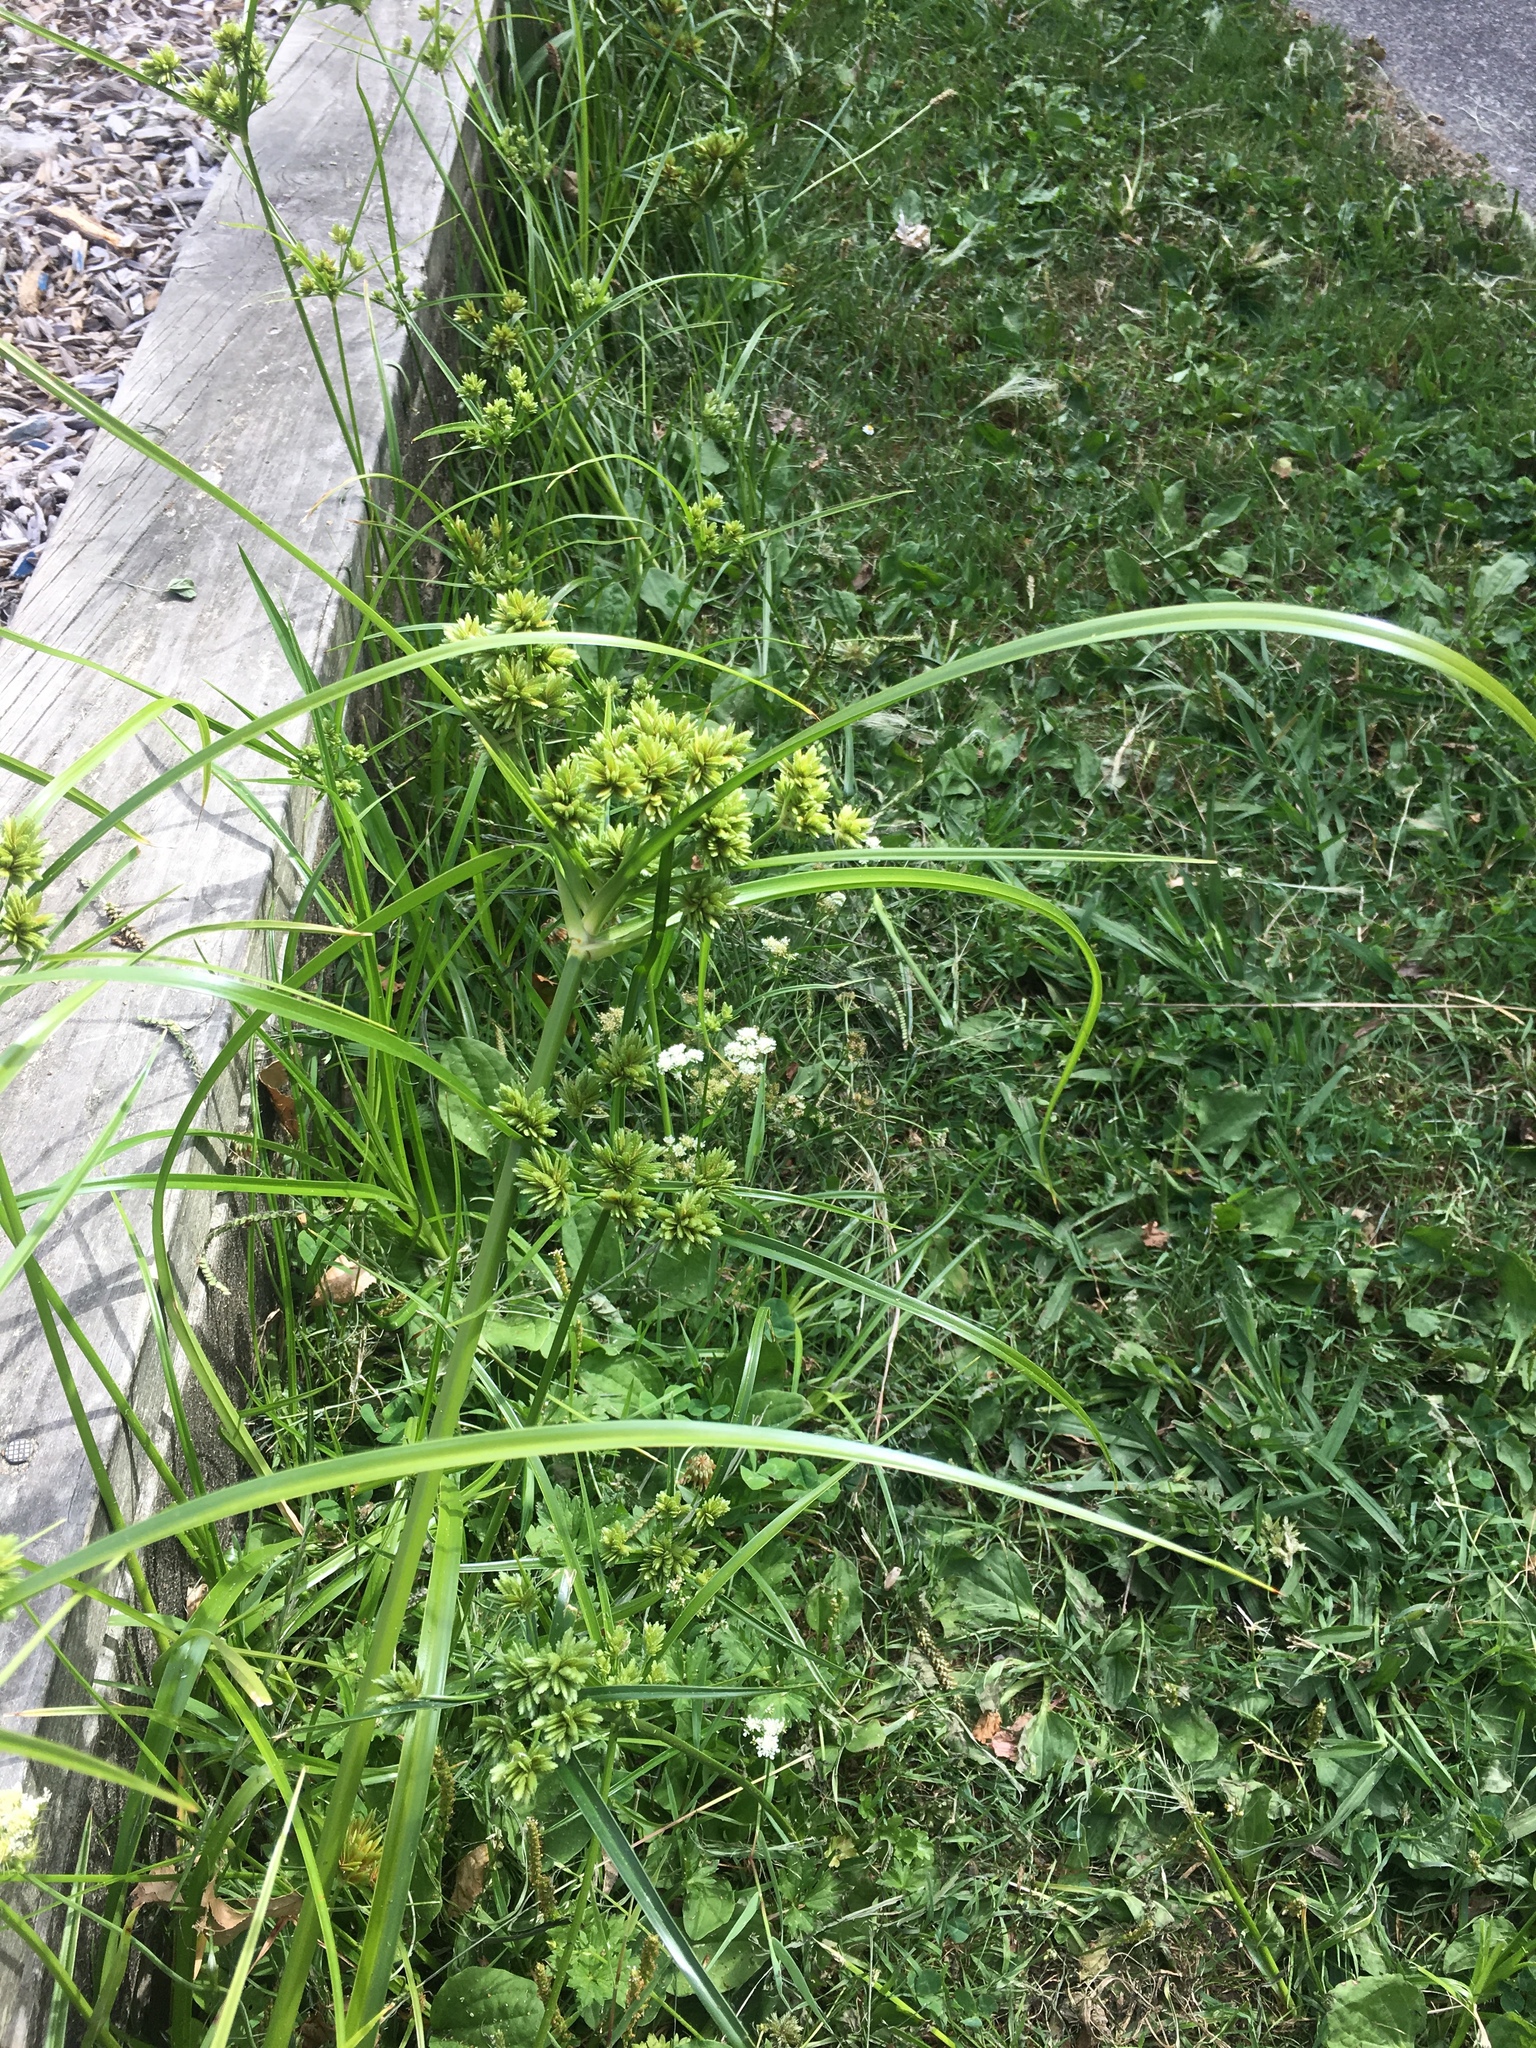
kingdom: Plantae
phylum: Tracheophyta
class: Liliopsida
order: Poales
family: Cyperaceae
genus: Cyperus
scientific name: Cyperus eragrostis
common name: Tall flatsedge
